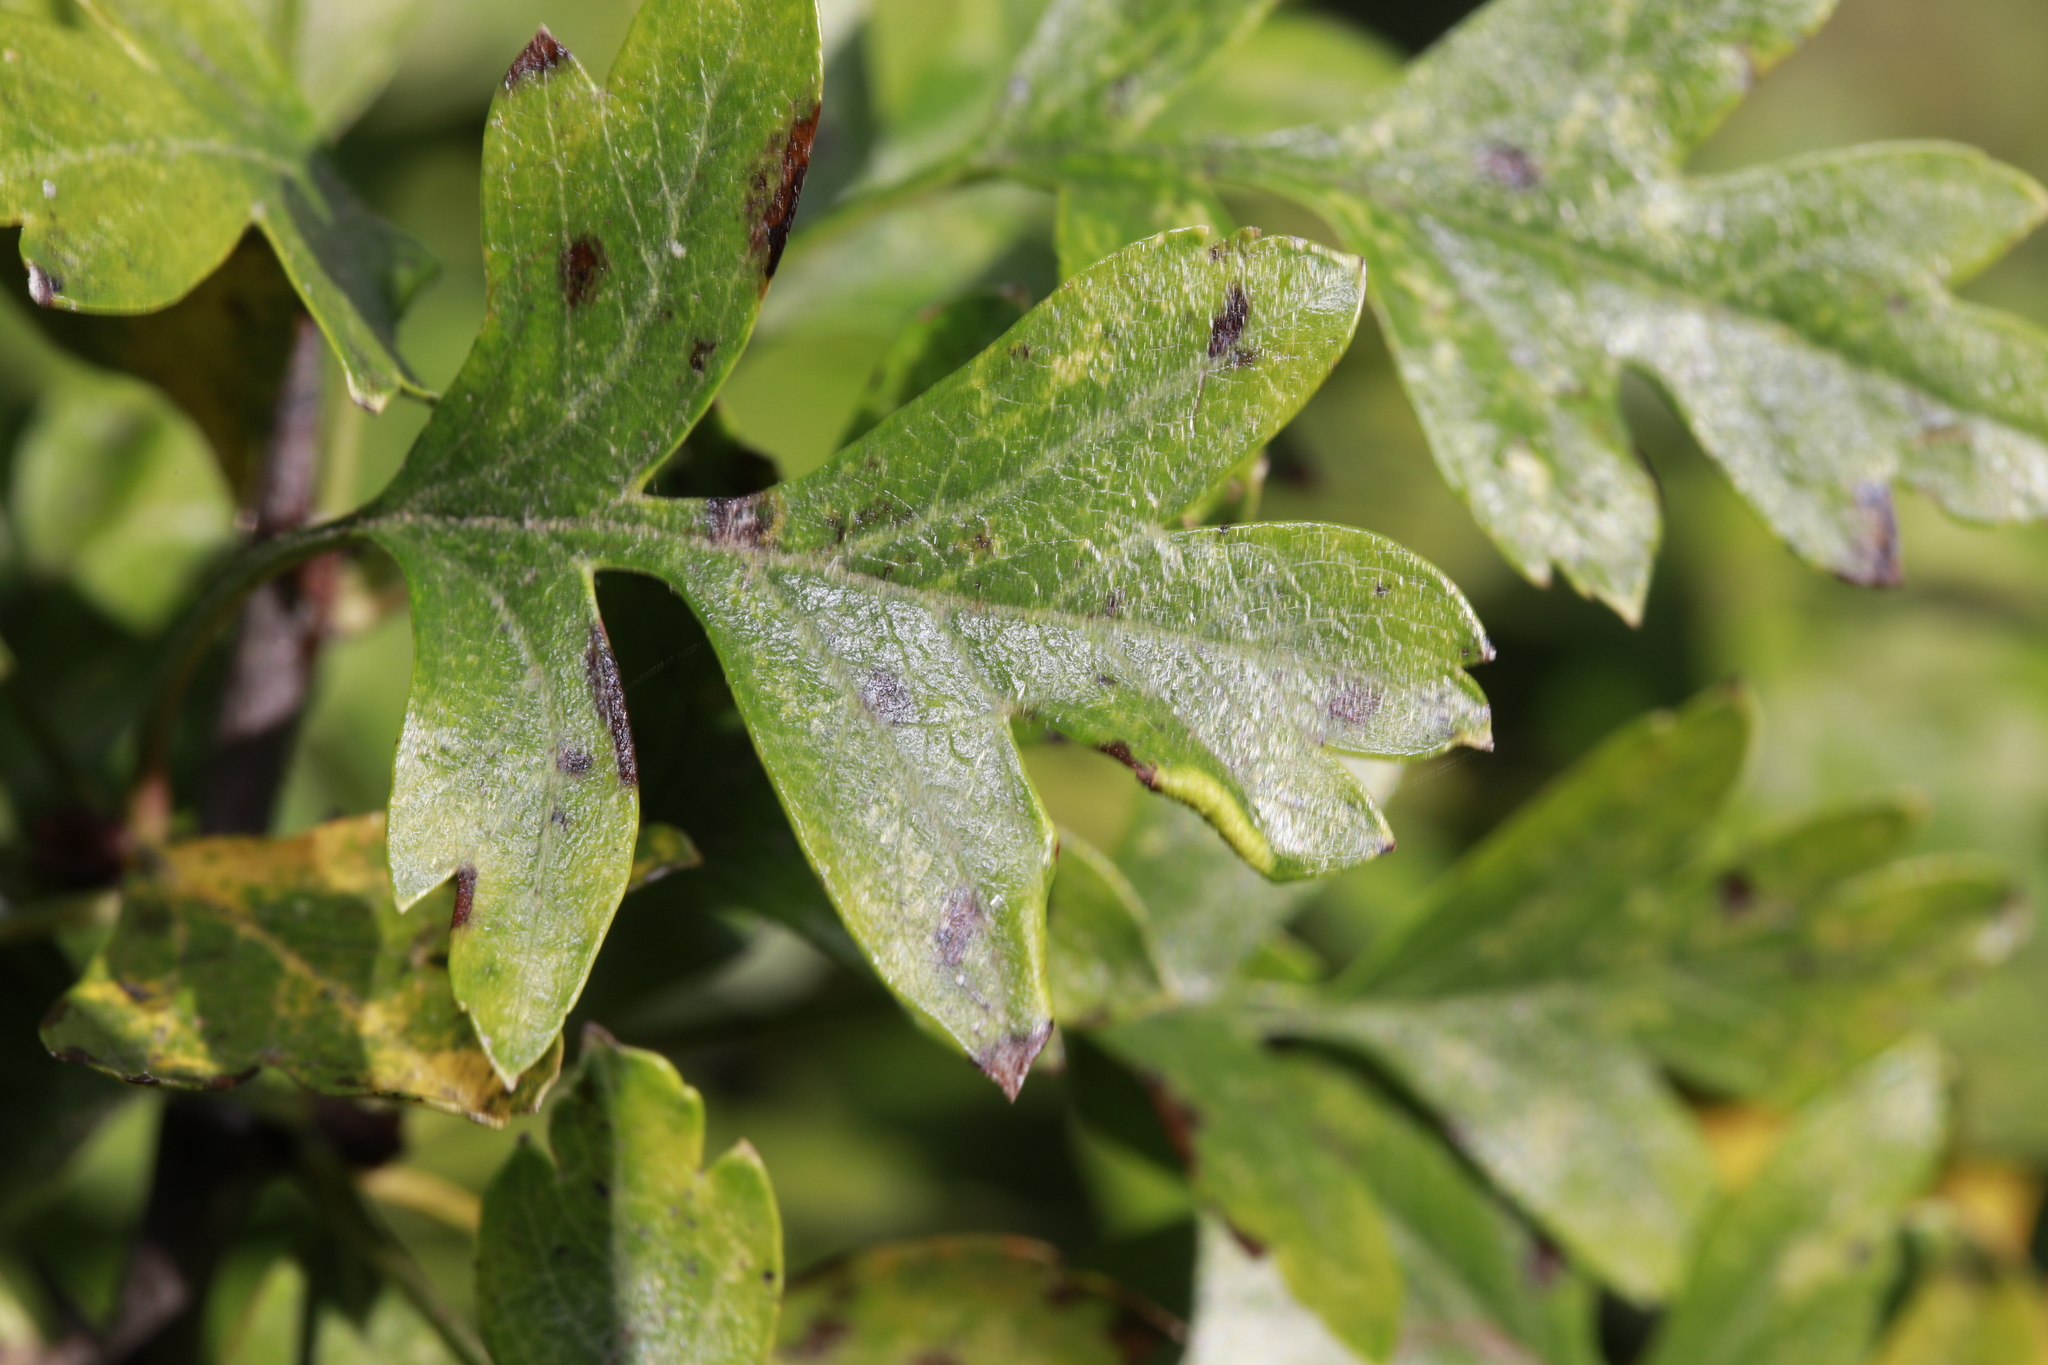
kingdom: Animalia
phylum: Arthropoda
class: Arachnida
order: Trombidiformes
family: Eriophyidae
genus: Phyllocoptes
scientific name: Phyllocoptes goniothorax
